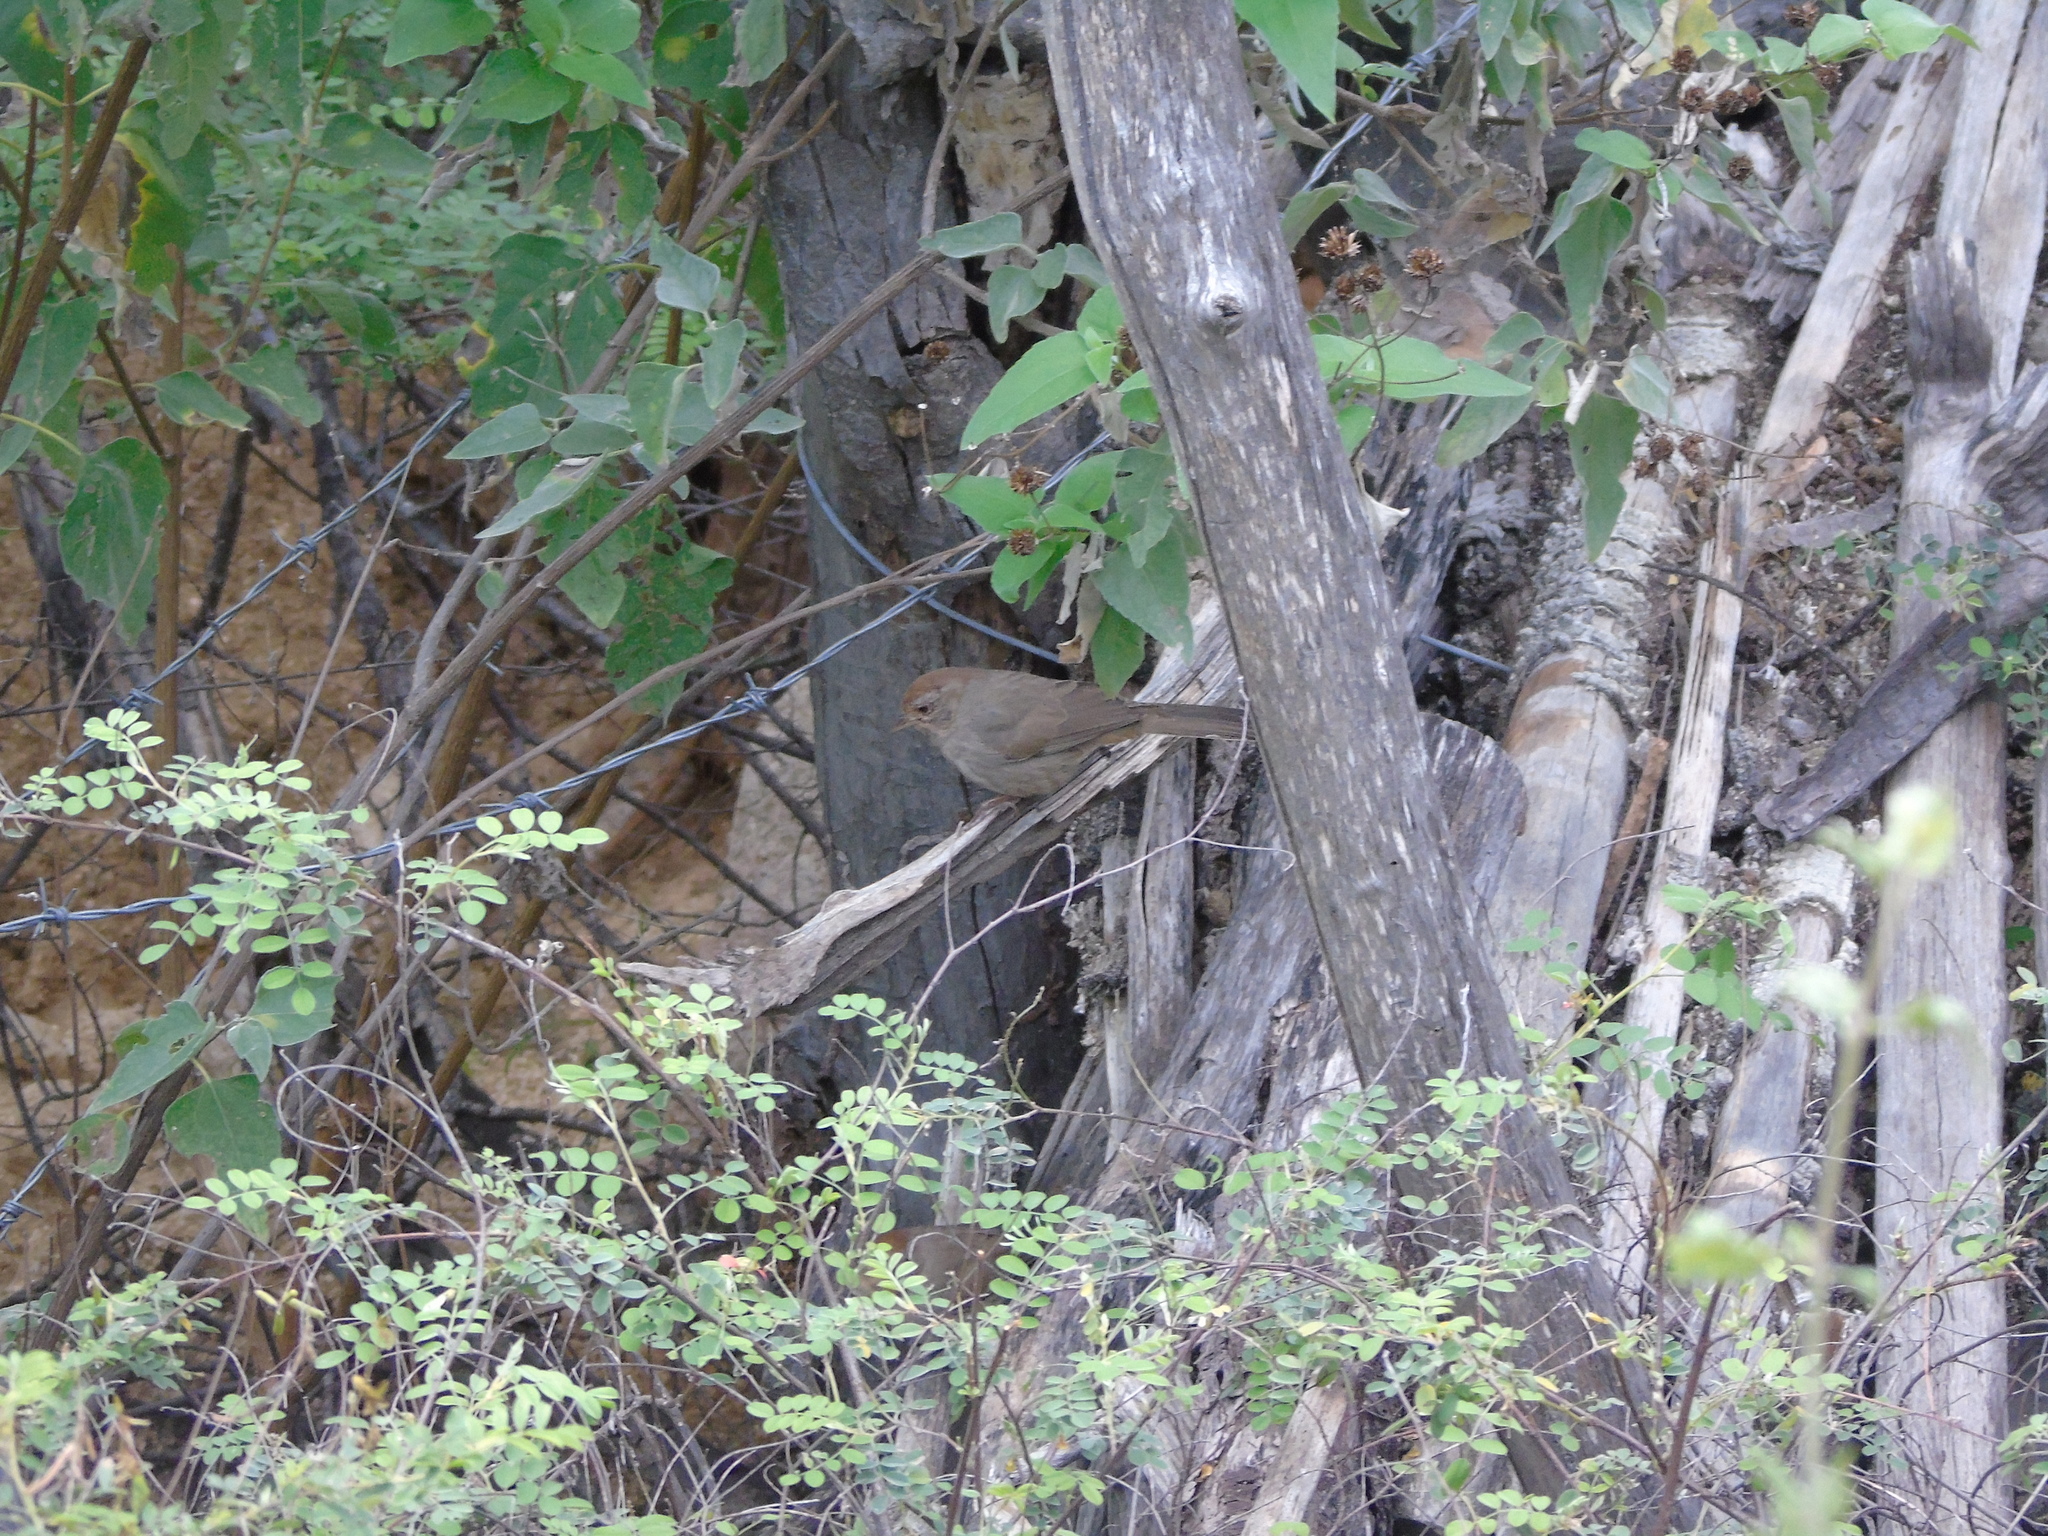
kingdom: Animalia
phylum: Chordata
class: Aves
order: Passeriformes
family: Passerellidae
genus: Melozone
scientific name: Melozone crissalis
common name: California towhee
